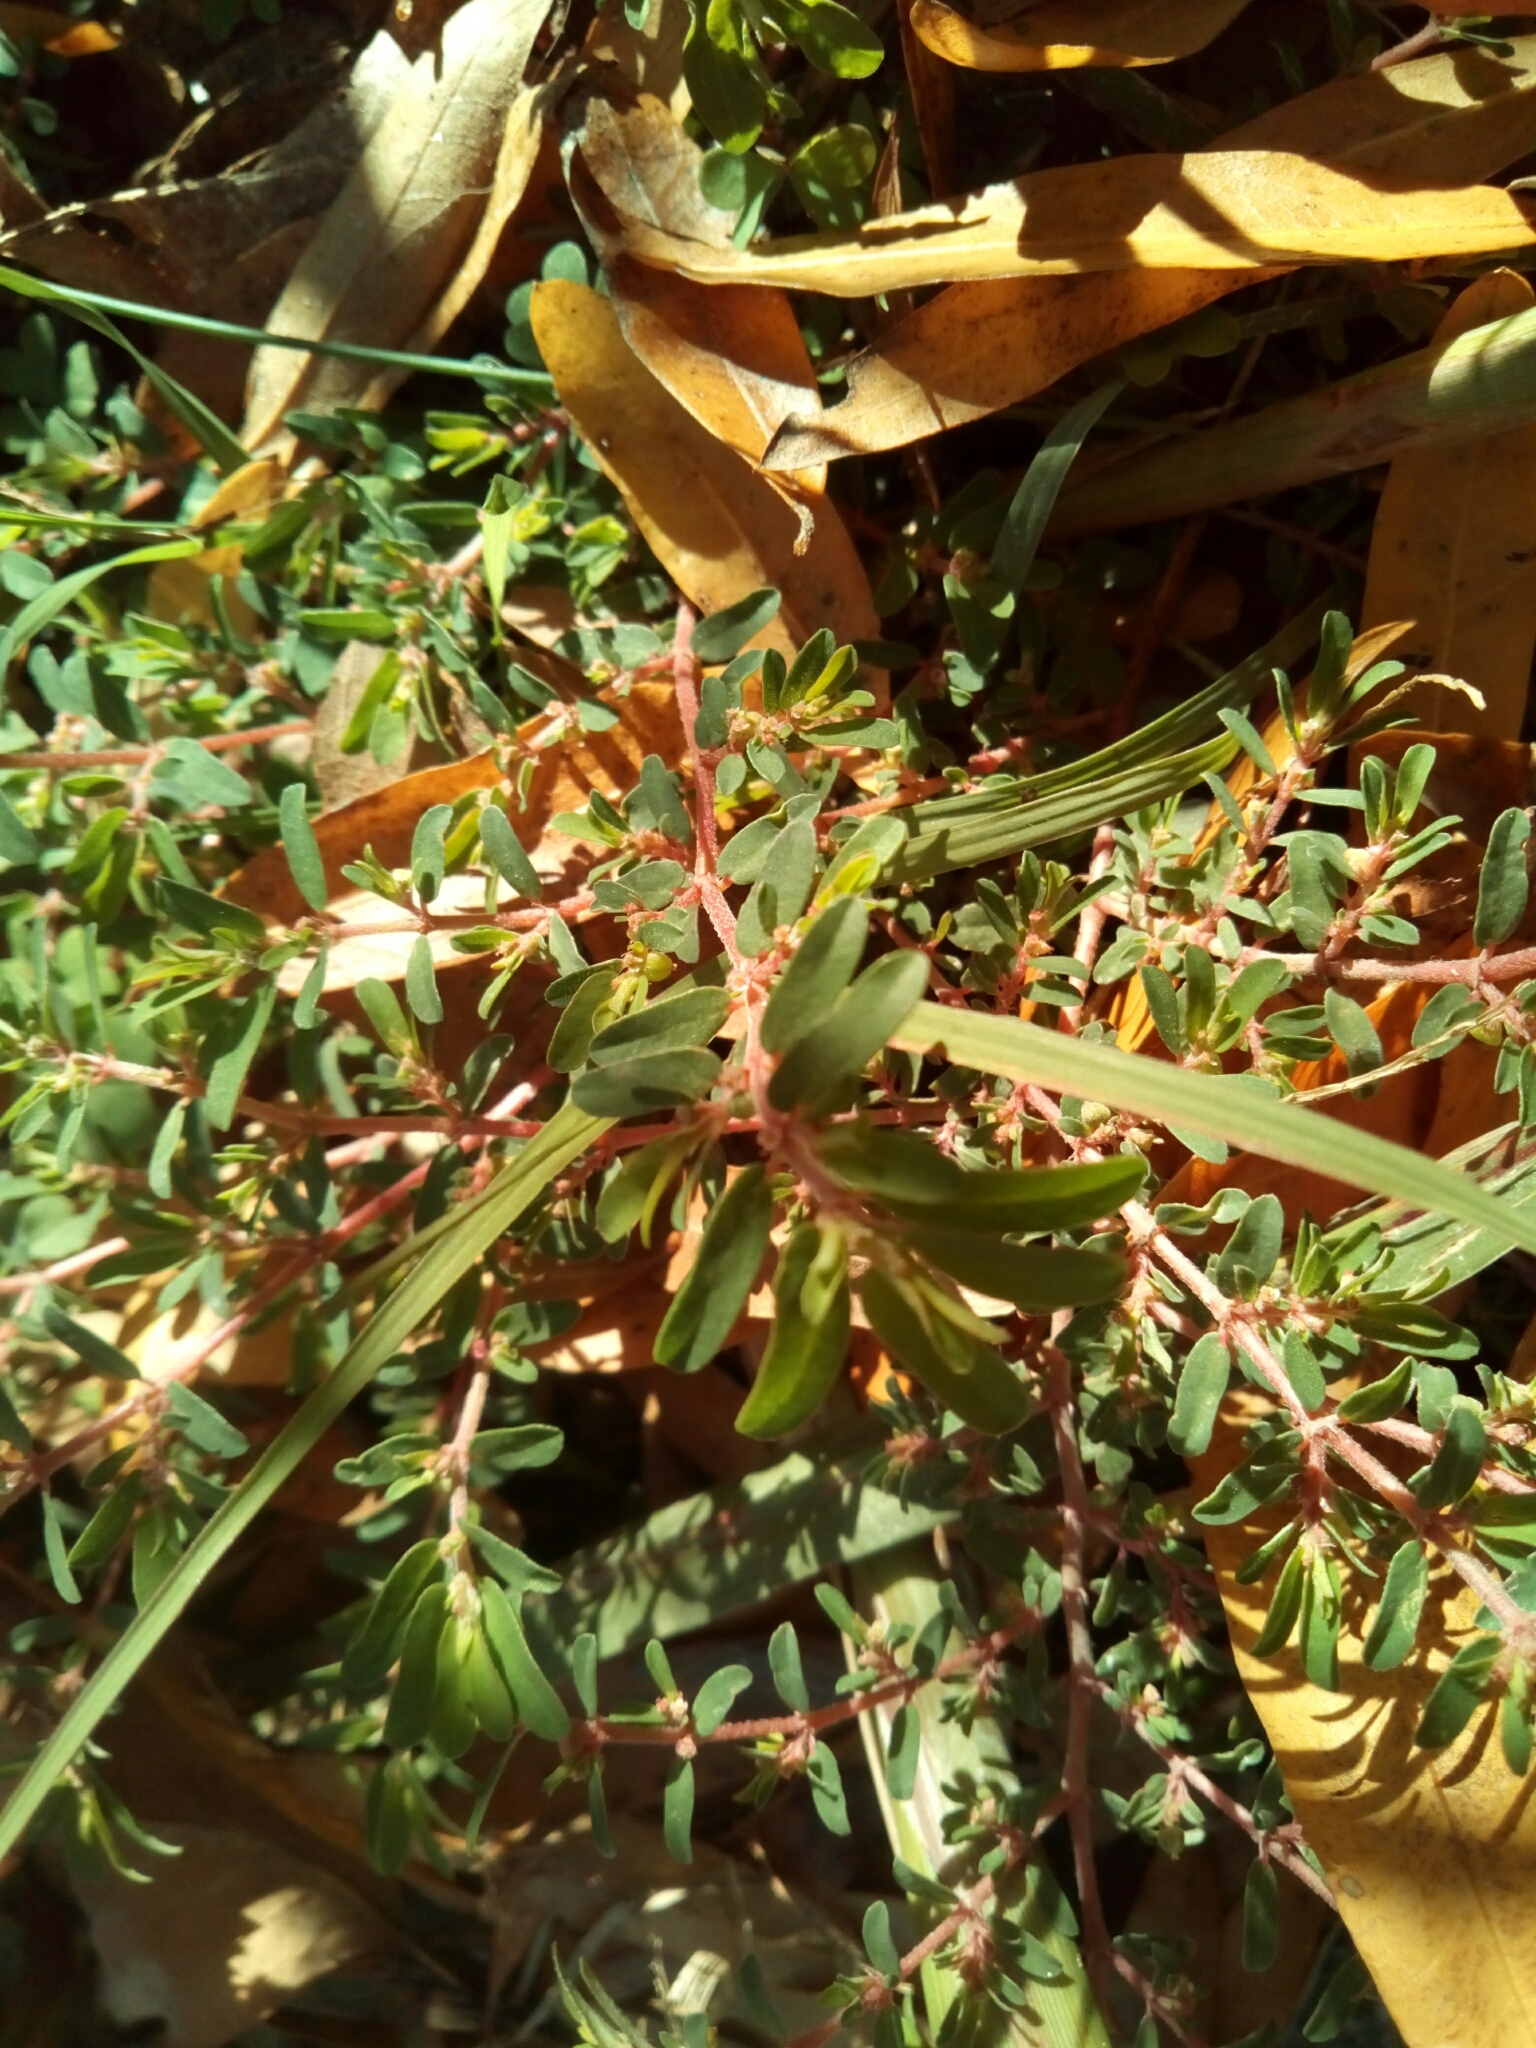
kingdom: Plantae
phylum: Tracheophyta
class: Magnoliopsida
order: Malpighiales
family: Euphorbiaceae
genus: Euphorbia
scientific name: Euphorbia maculata
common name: Spotted spurge
